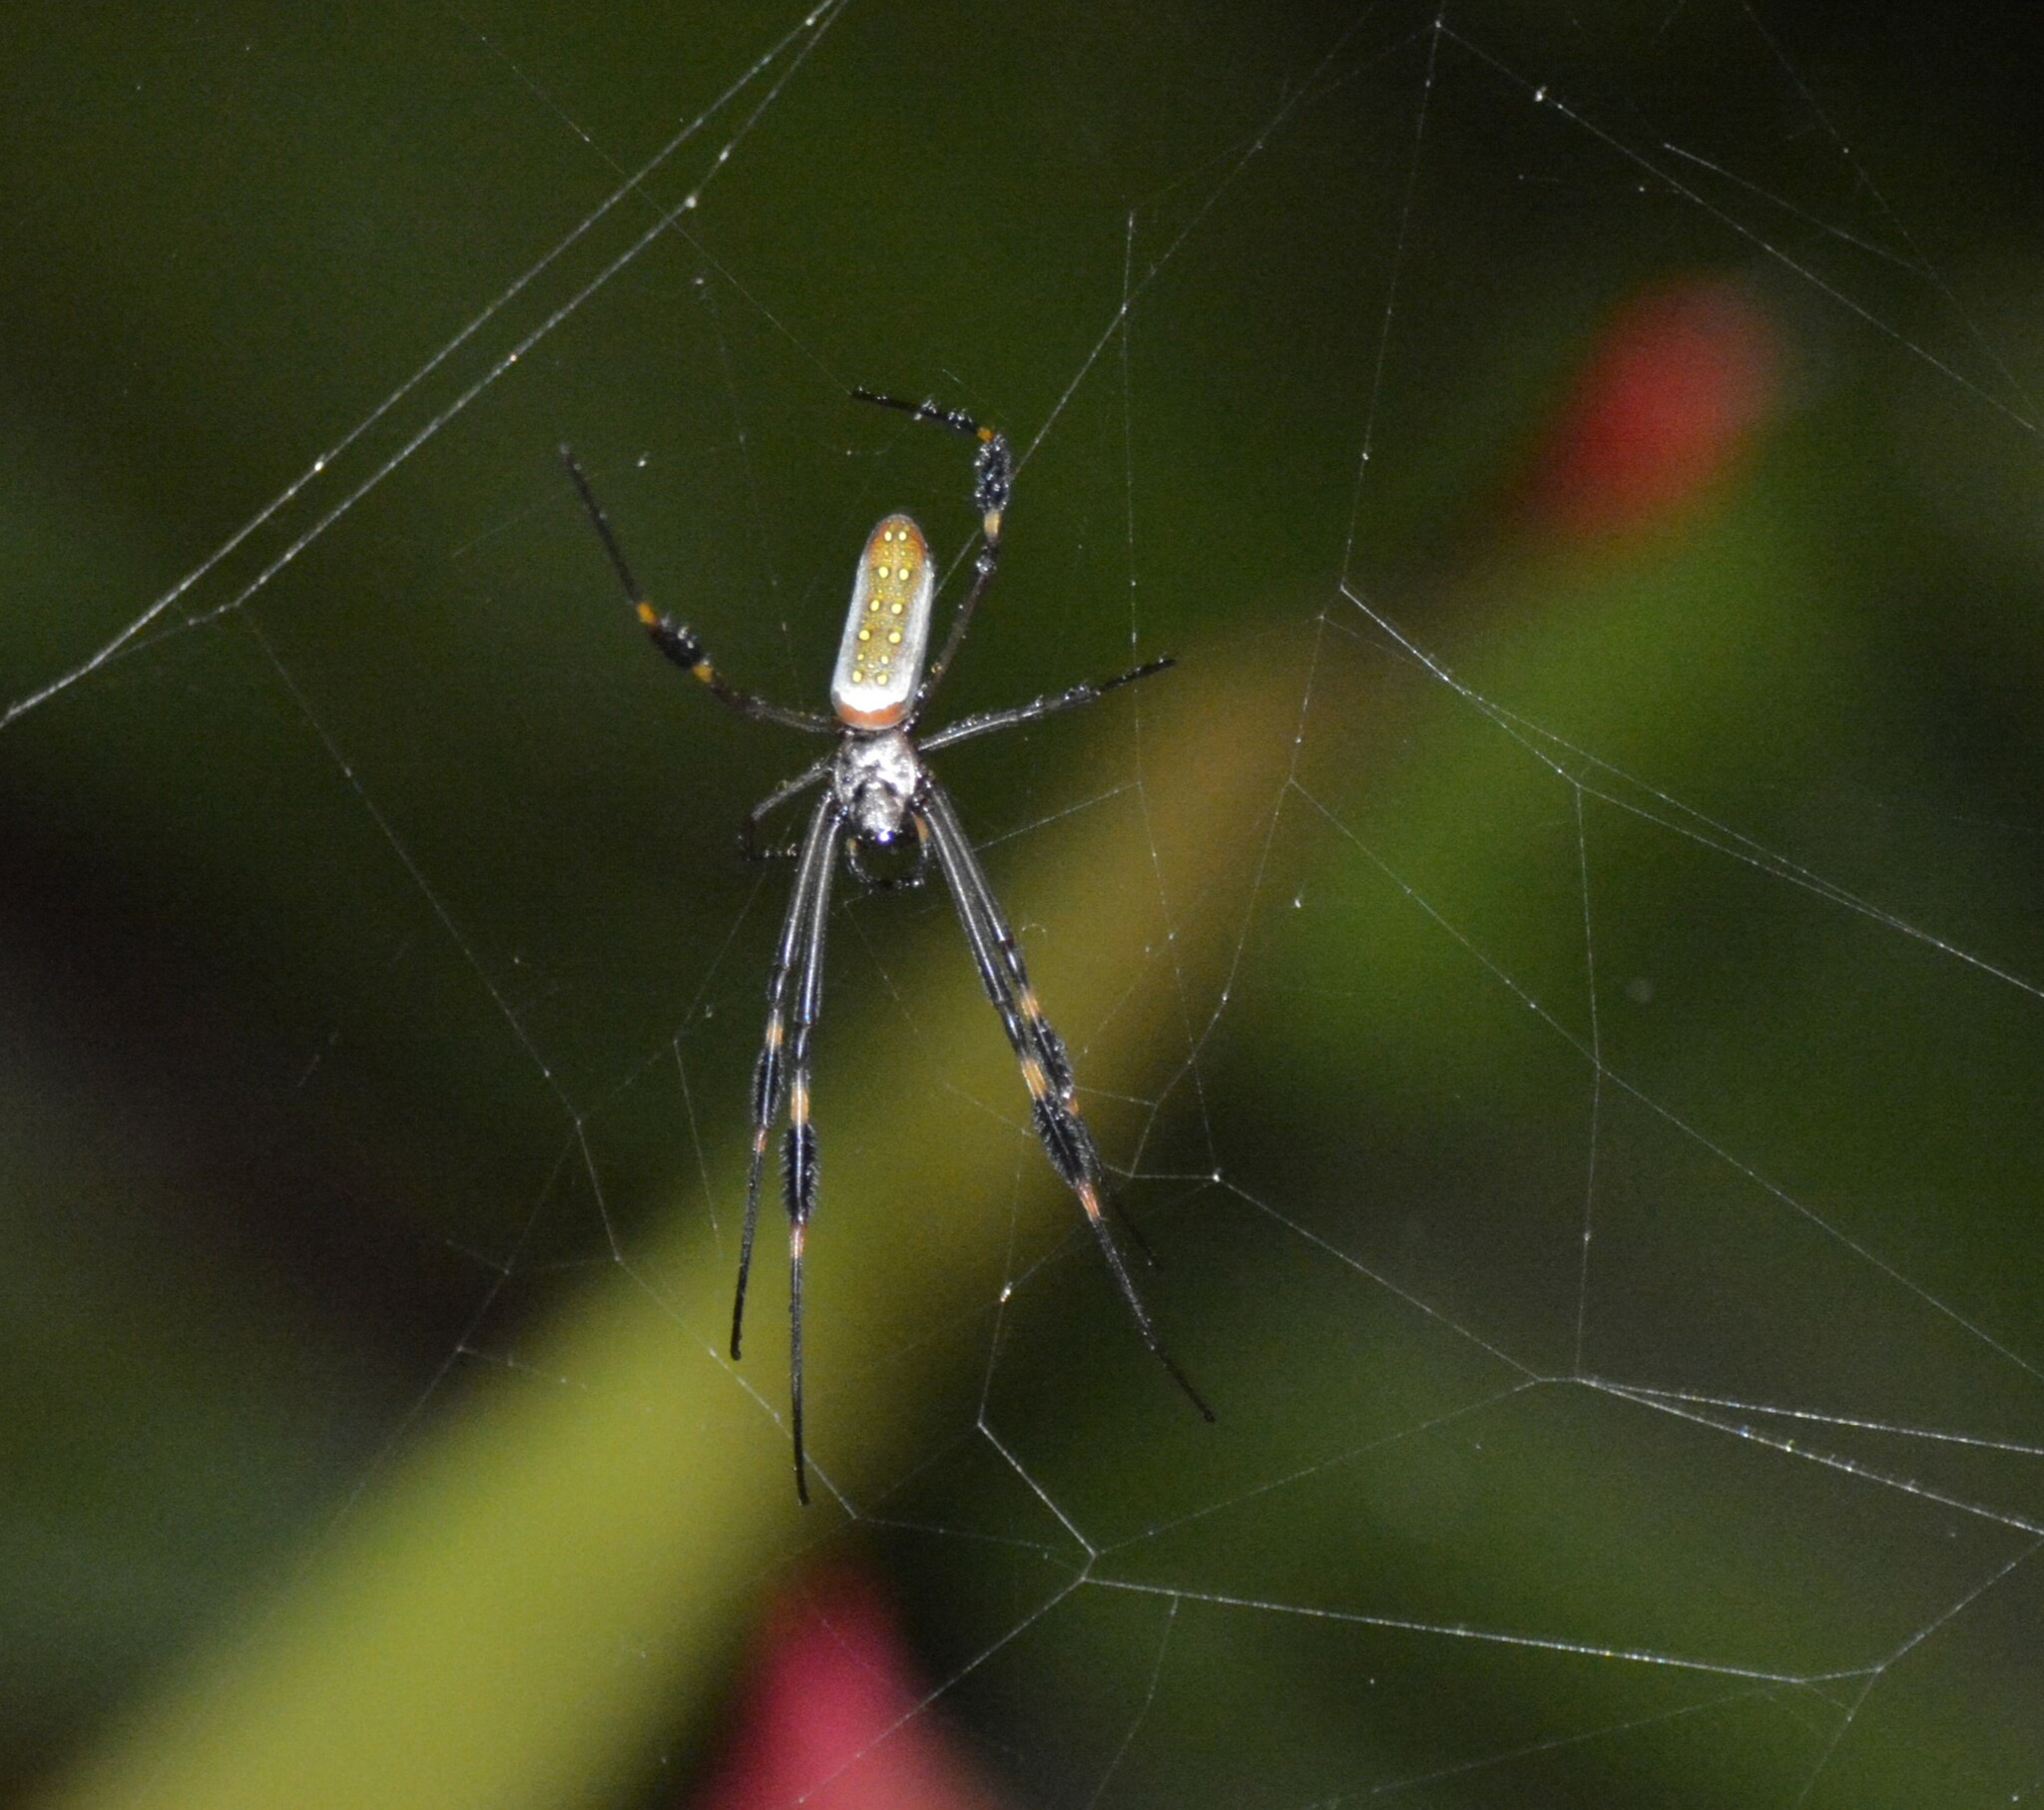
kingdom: Animalia
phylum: Arthropoda
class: Arachnida
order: Araneae
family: Araneidae
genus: Trichonephila
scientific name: Trichonephila clavipes
